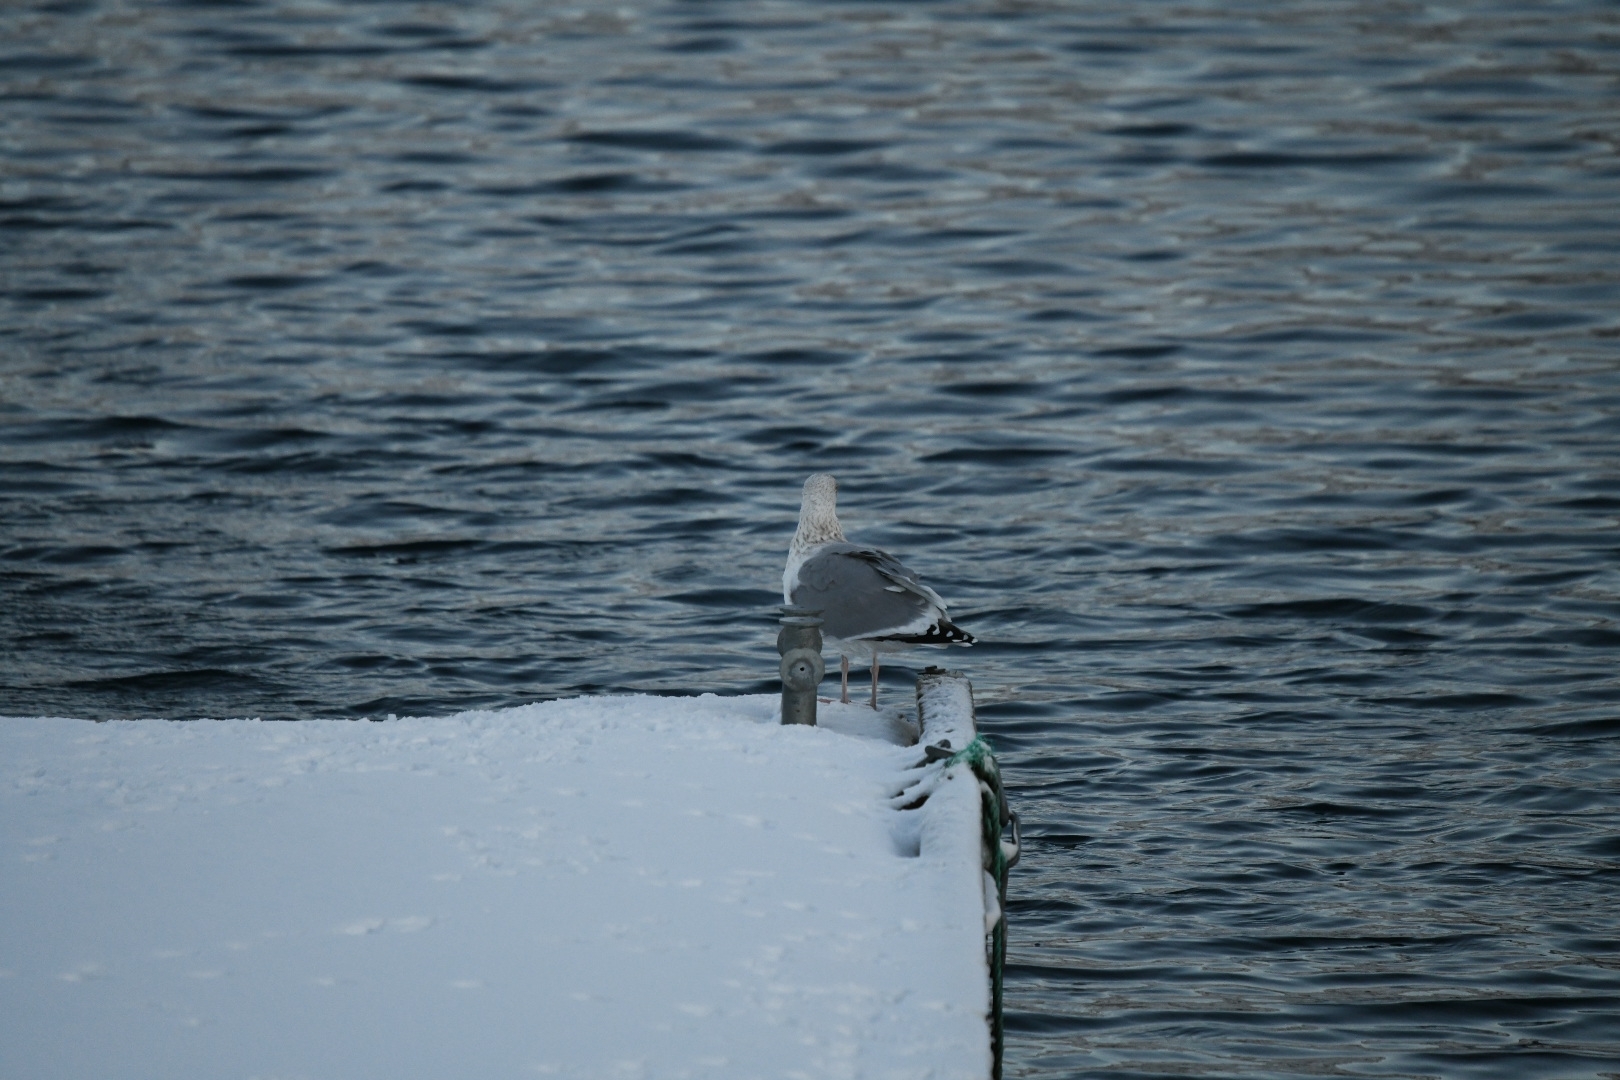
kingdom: Animalia
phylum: Chordata
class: Aves
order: Charadriiformes
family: Laridae
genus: Larus
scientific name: Larus argentatus
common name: Herring gull
